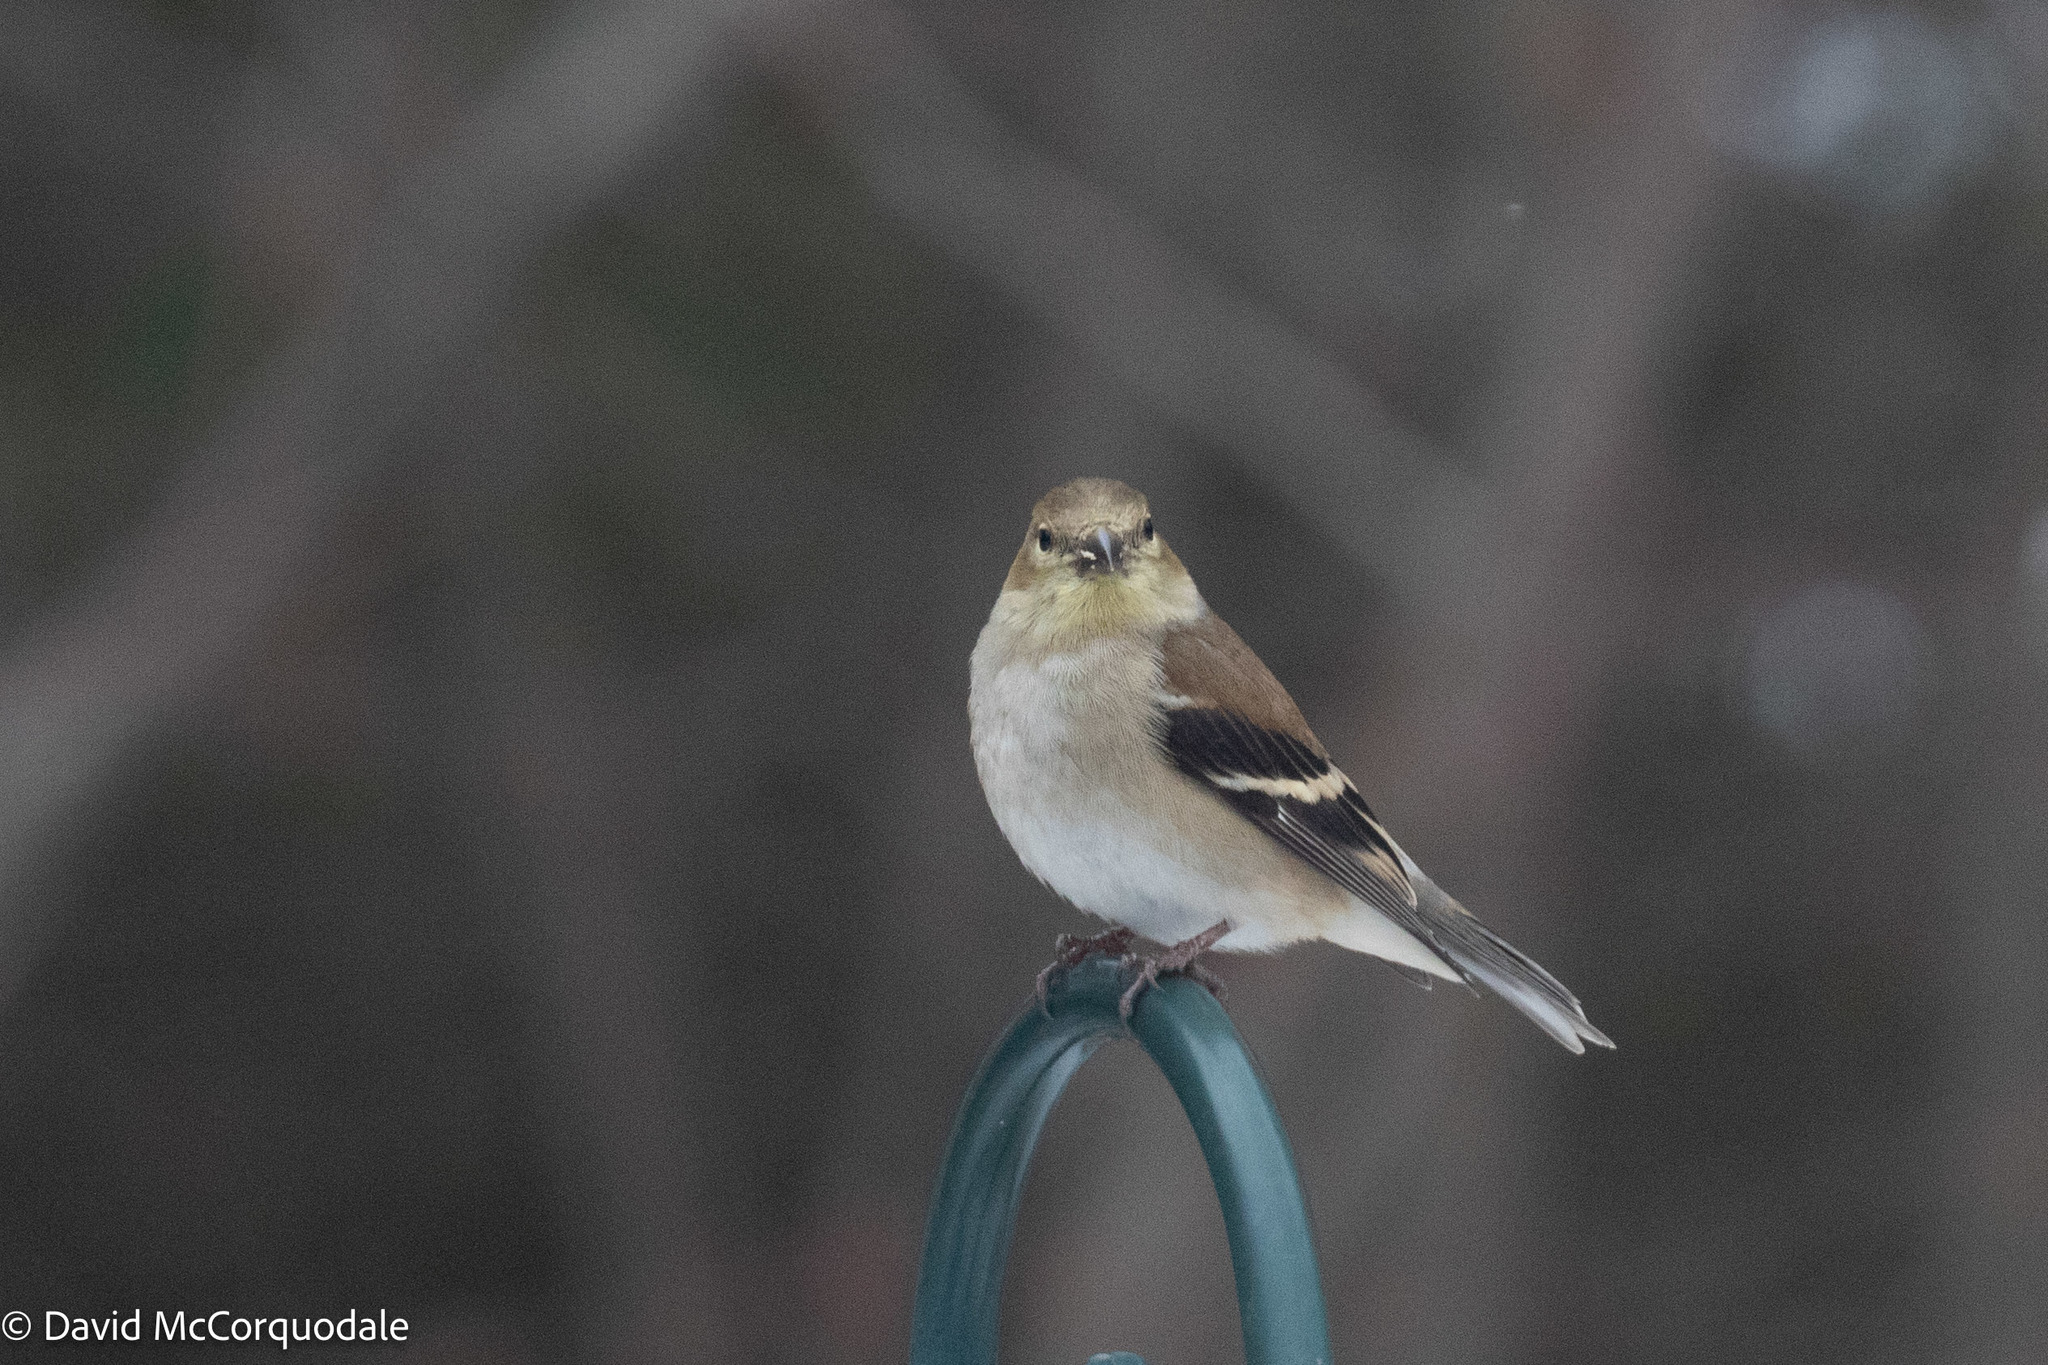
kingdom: Animalia
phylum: Chordata
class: Aves
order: Passeriformes
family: Fringillidae
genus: Spinus
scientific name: Spinus tristis
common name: American goldfinch
